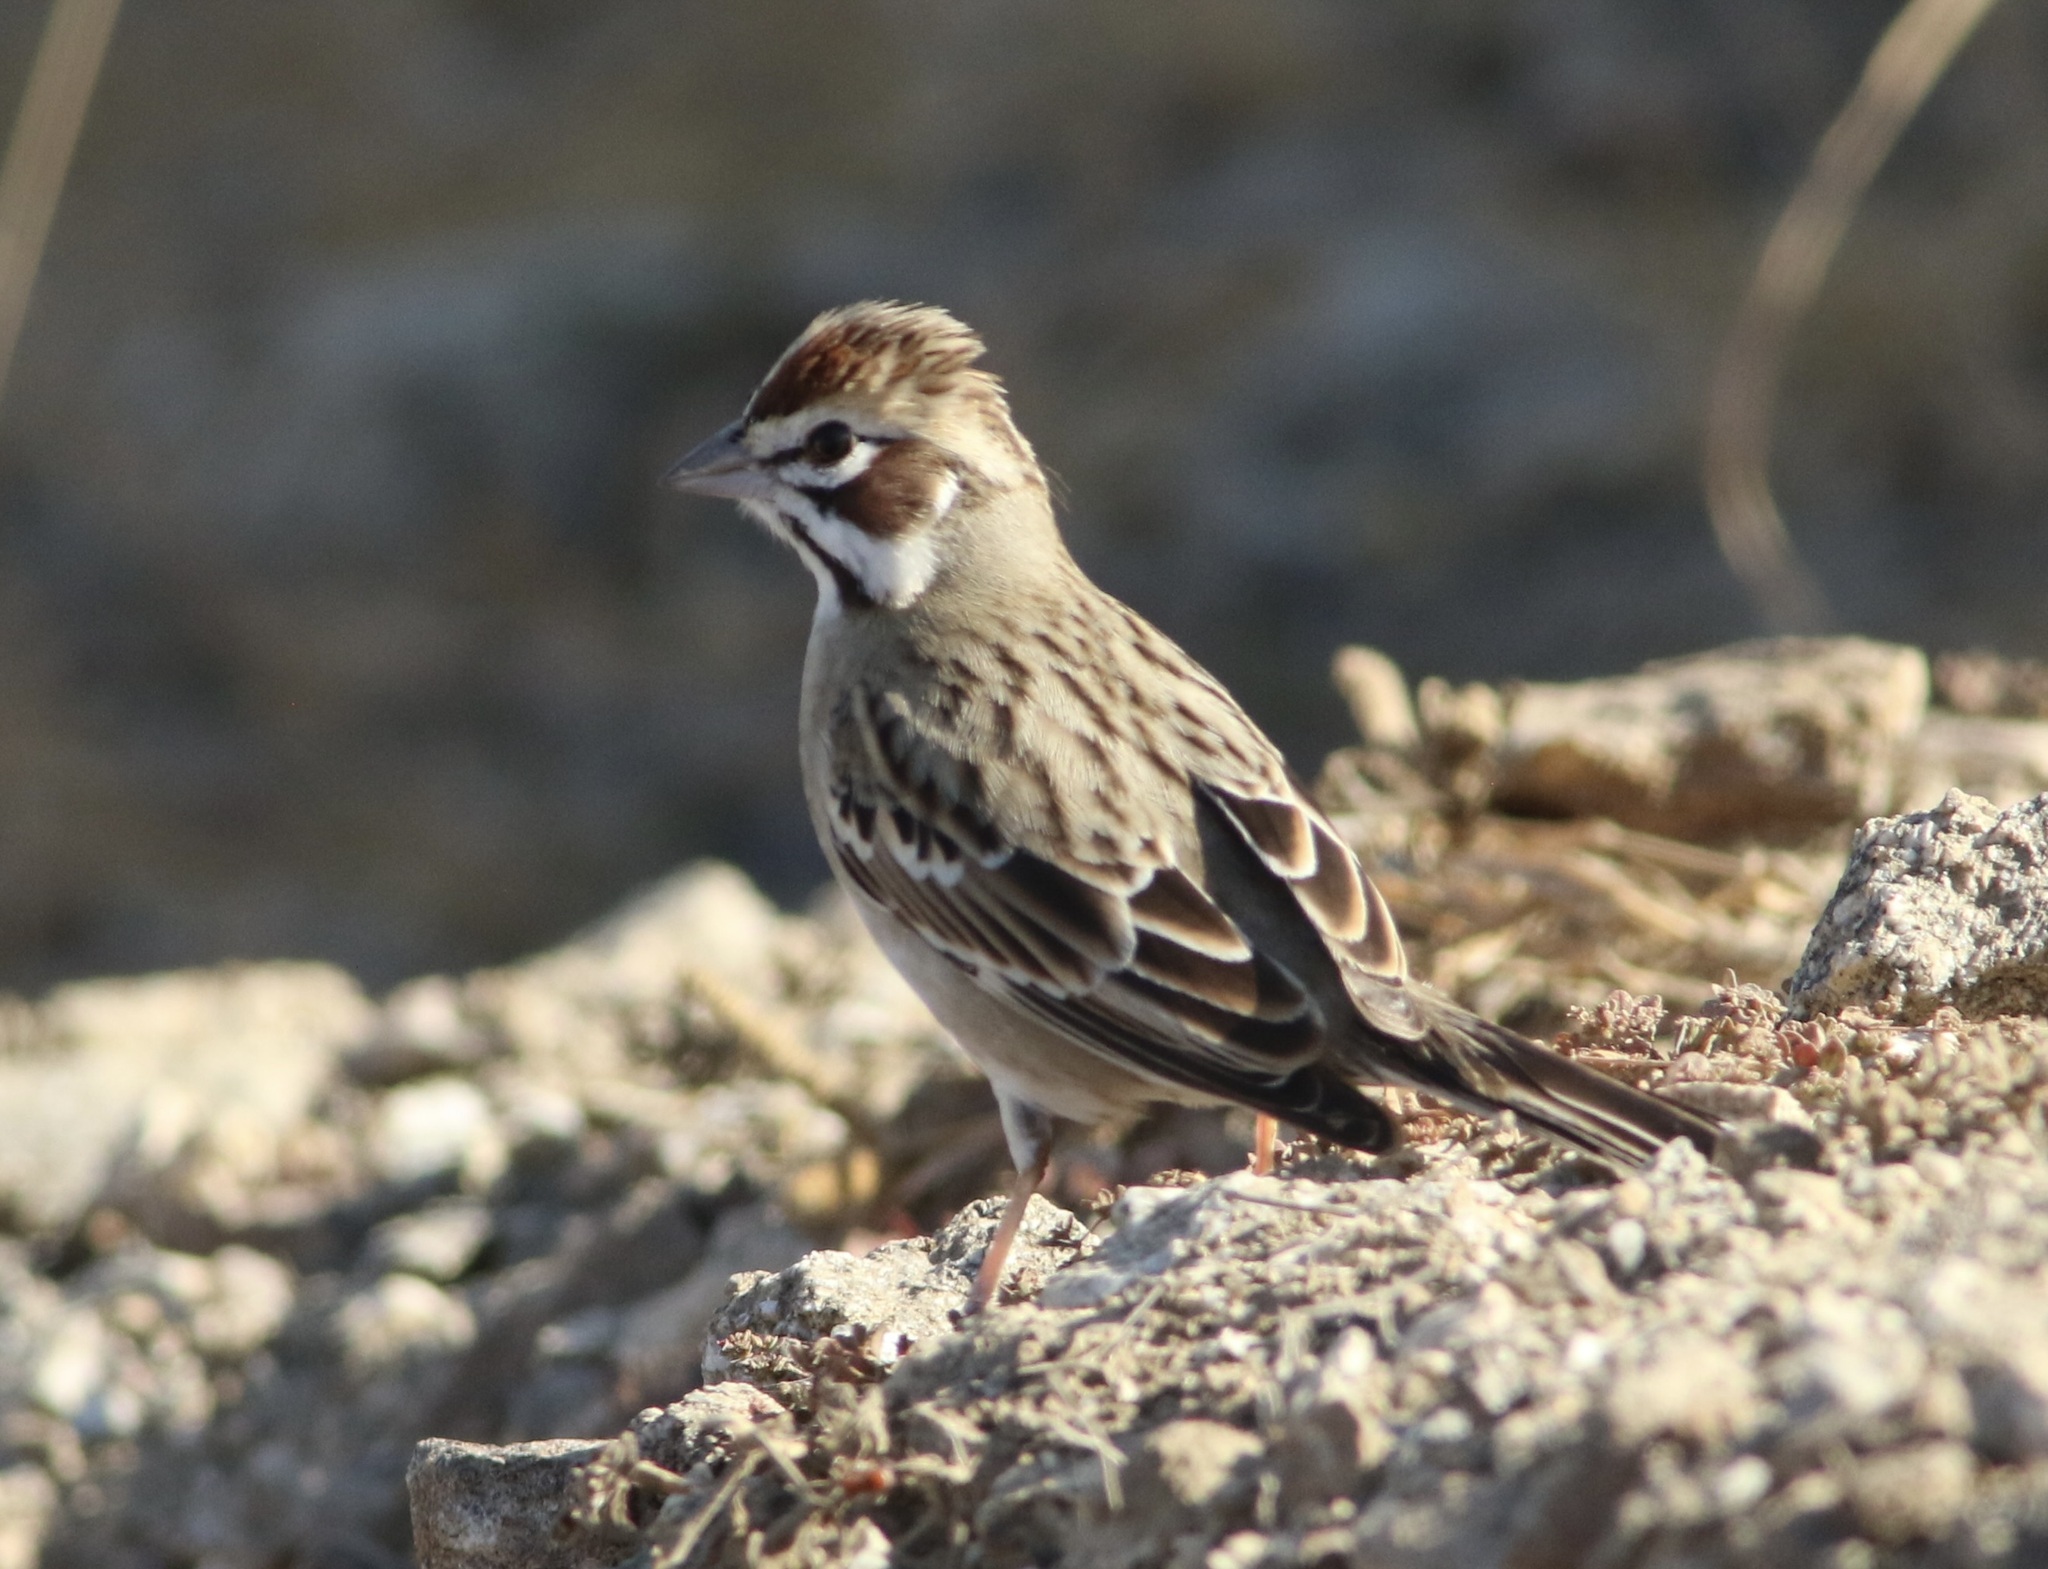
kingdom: Animalia
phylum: Chordata
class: Aves
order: Passeriformes
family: Passerellidae
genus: Chondestes
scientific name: Chondestes grammacus
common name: Lark sparrow
